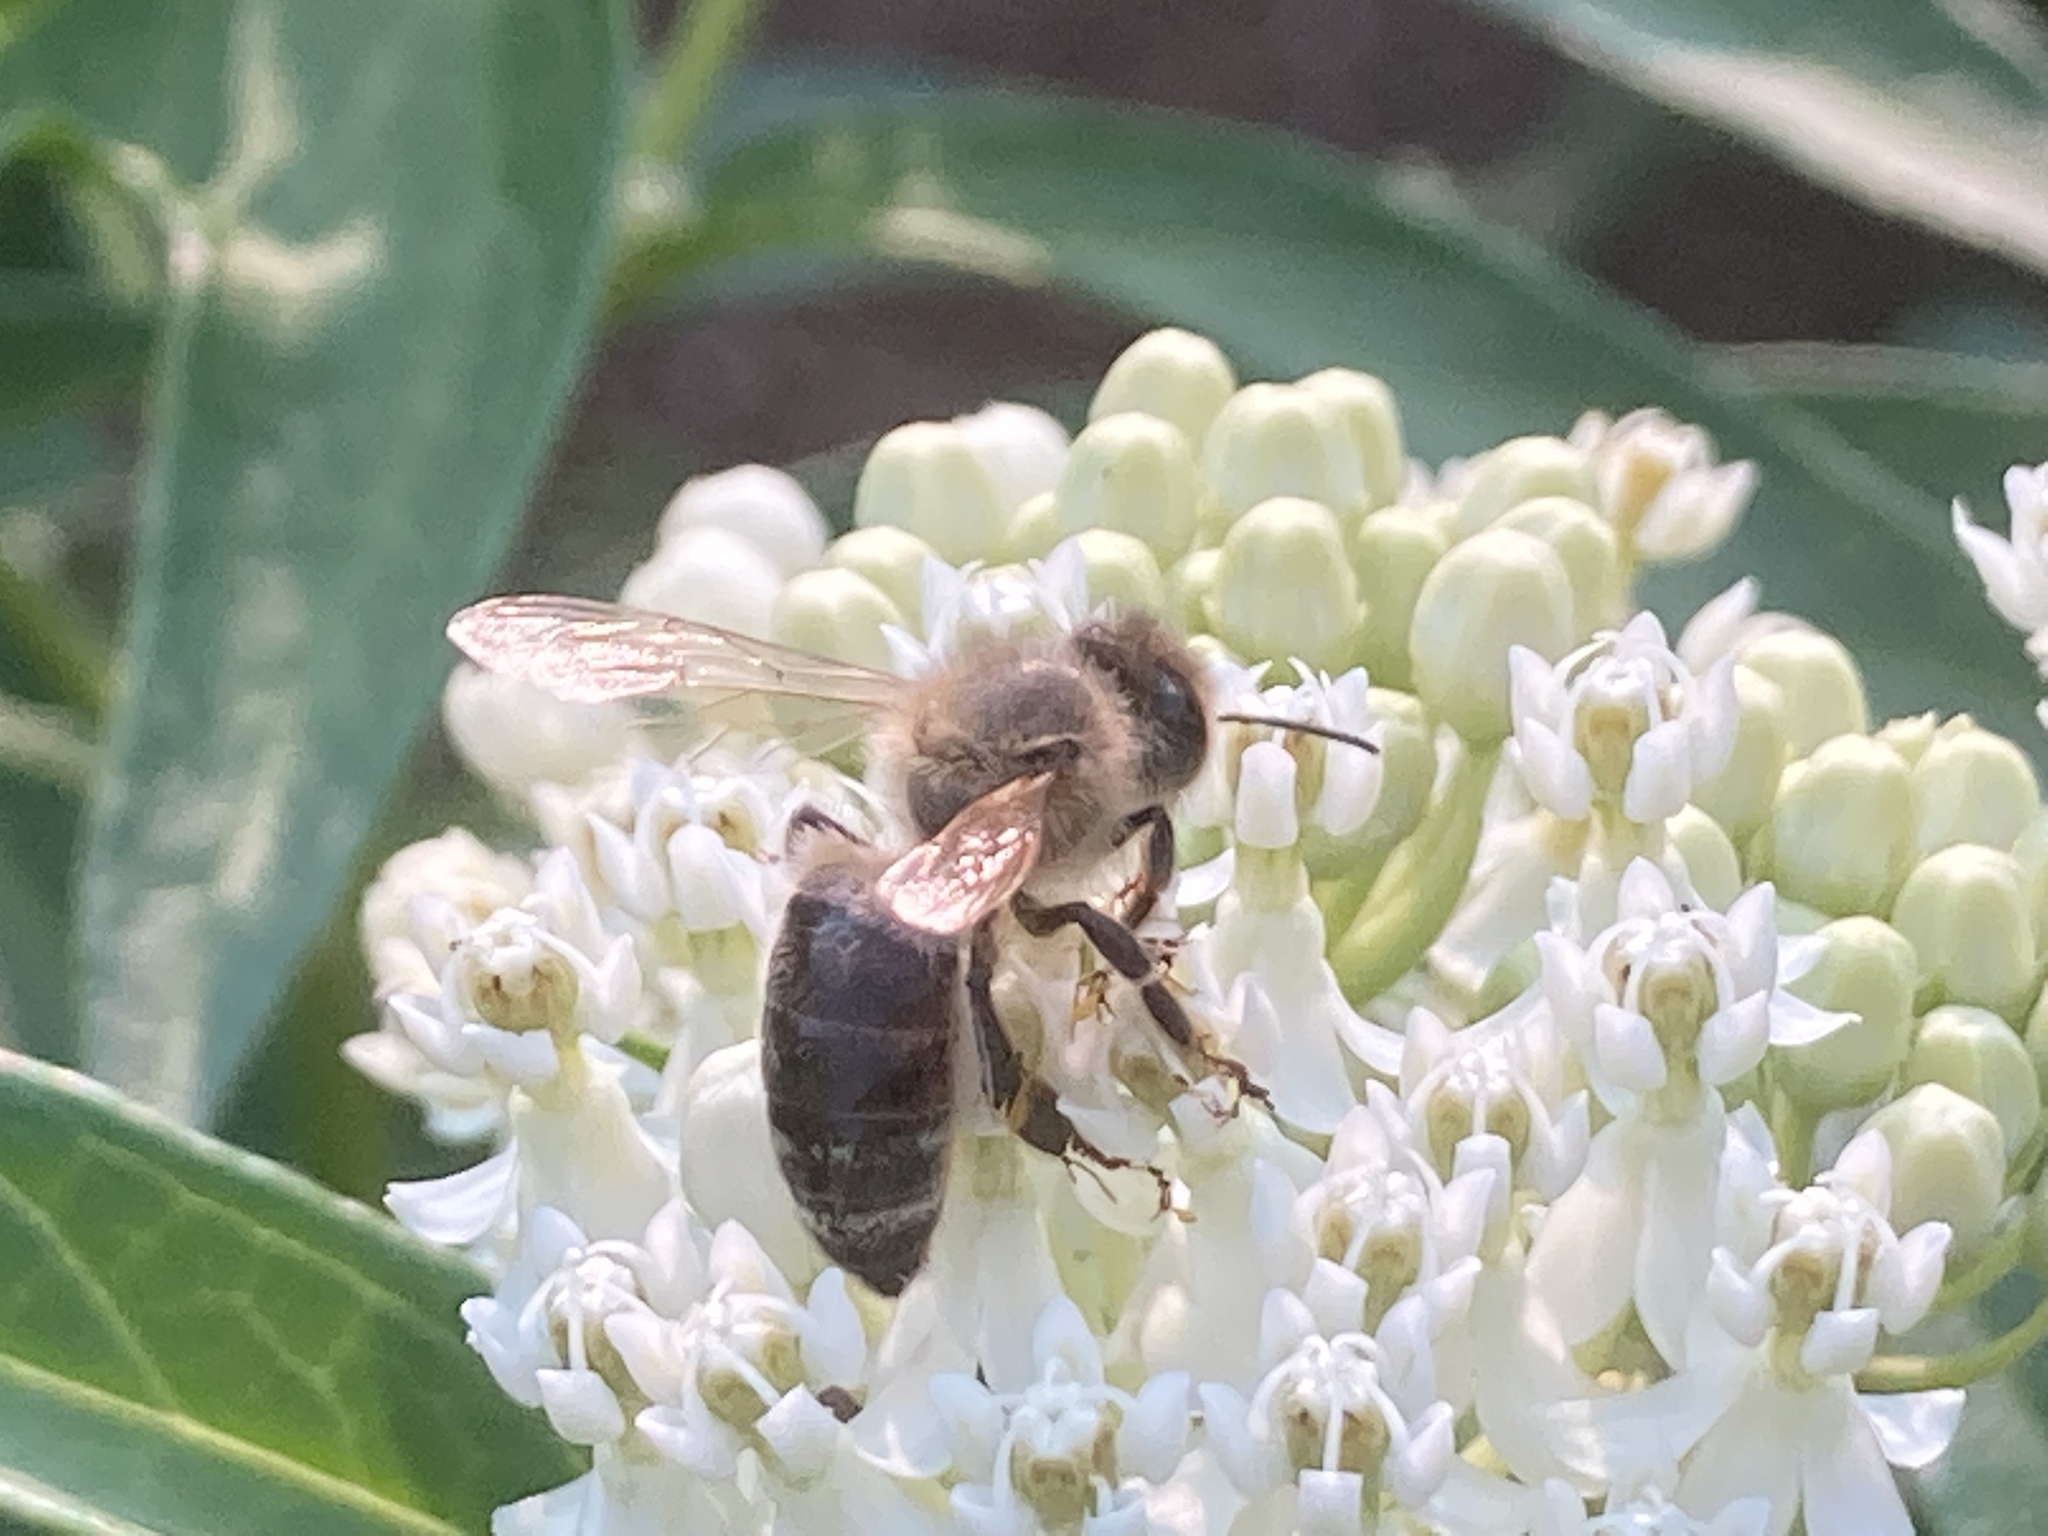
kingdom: Animalia
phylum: Arthropoda
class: Insecta
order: Hymenoptera
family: Apidae
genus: Apis
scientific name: Apis mellifera
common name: Honey bee
